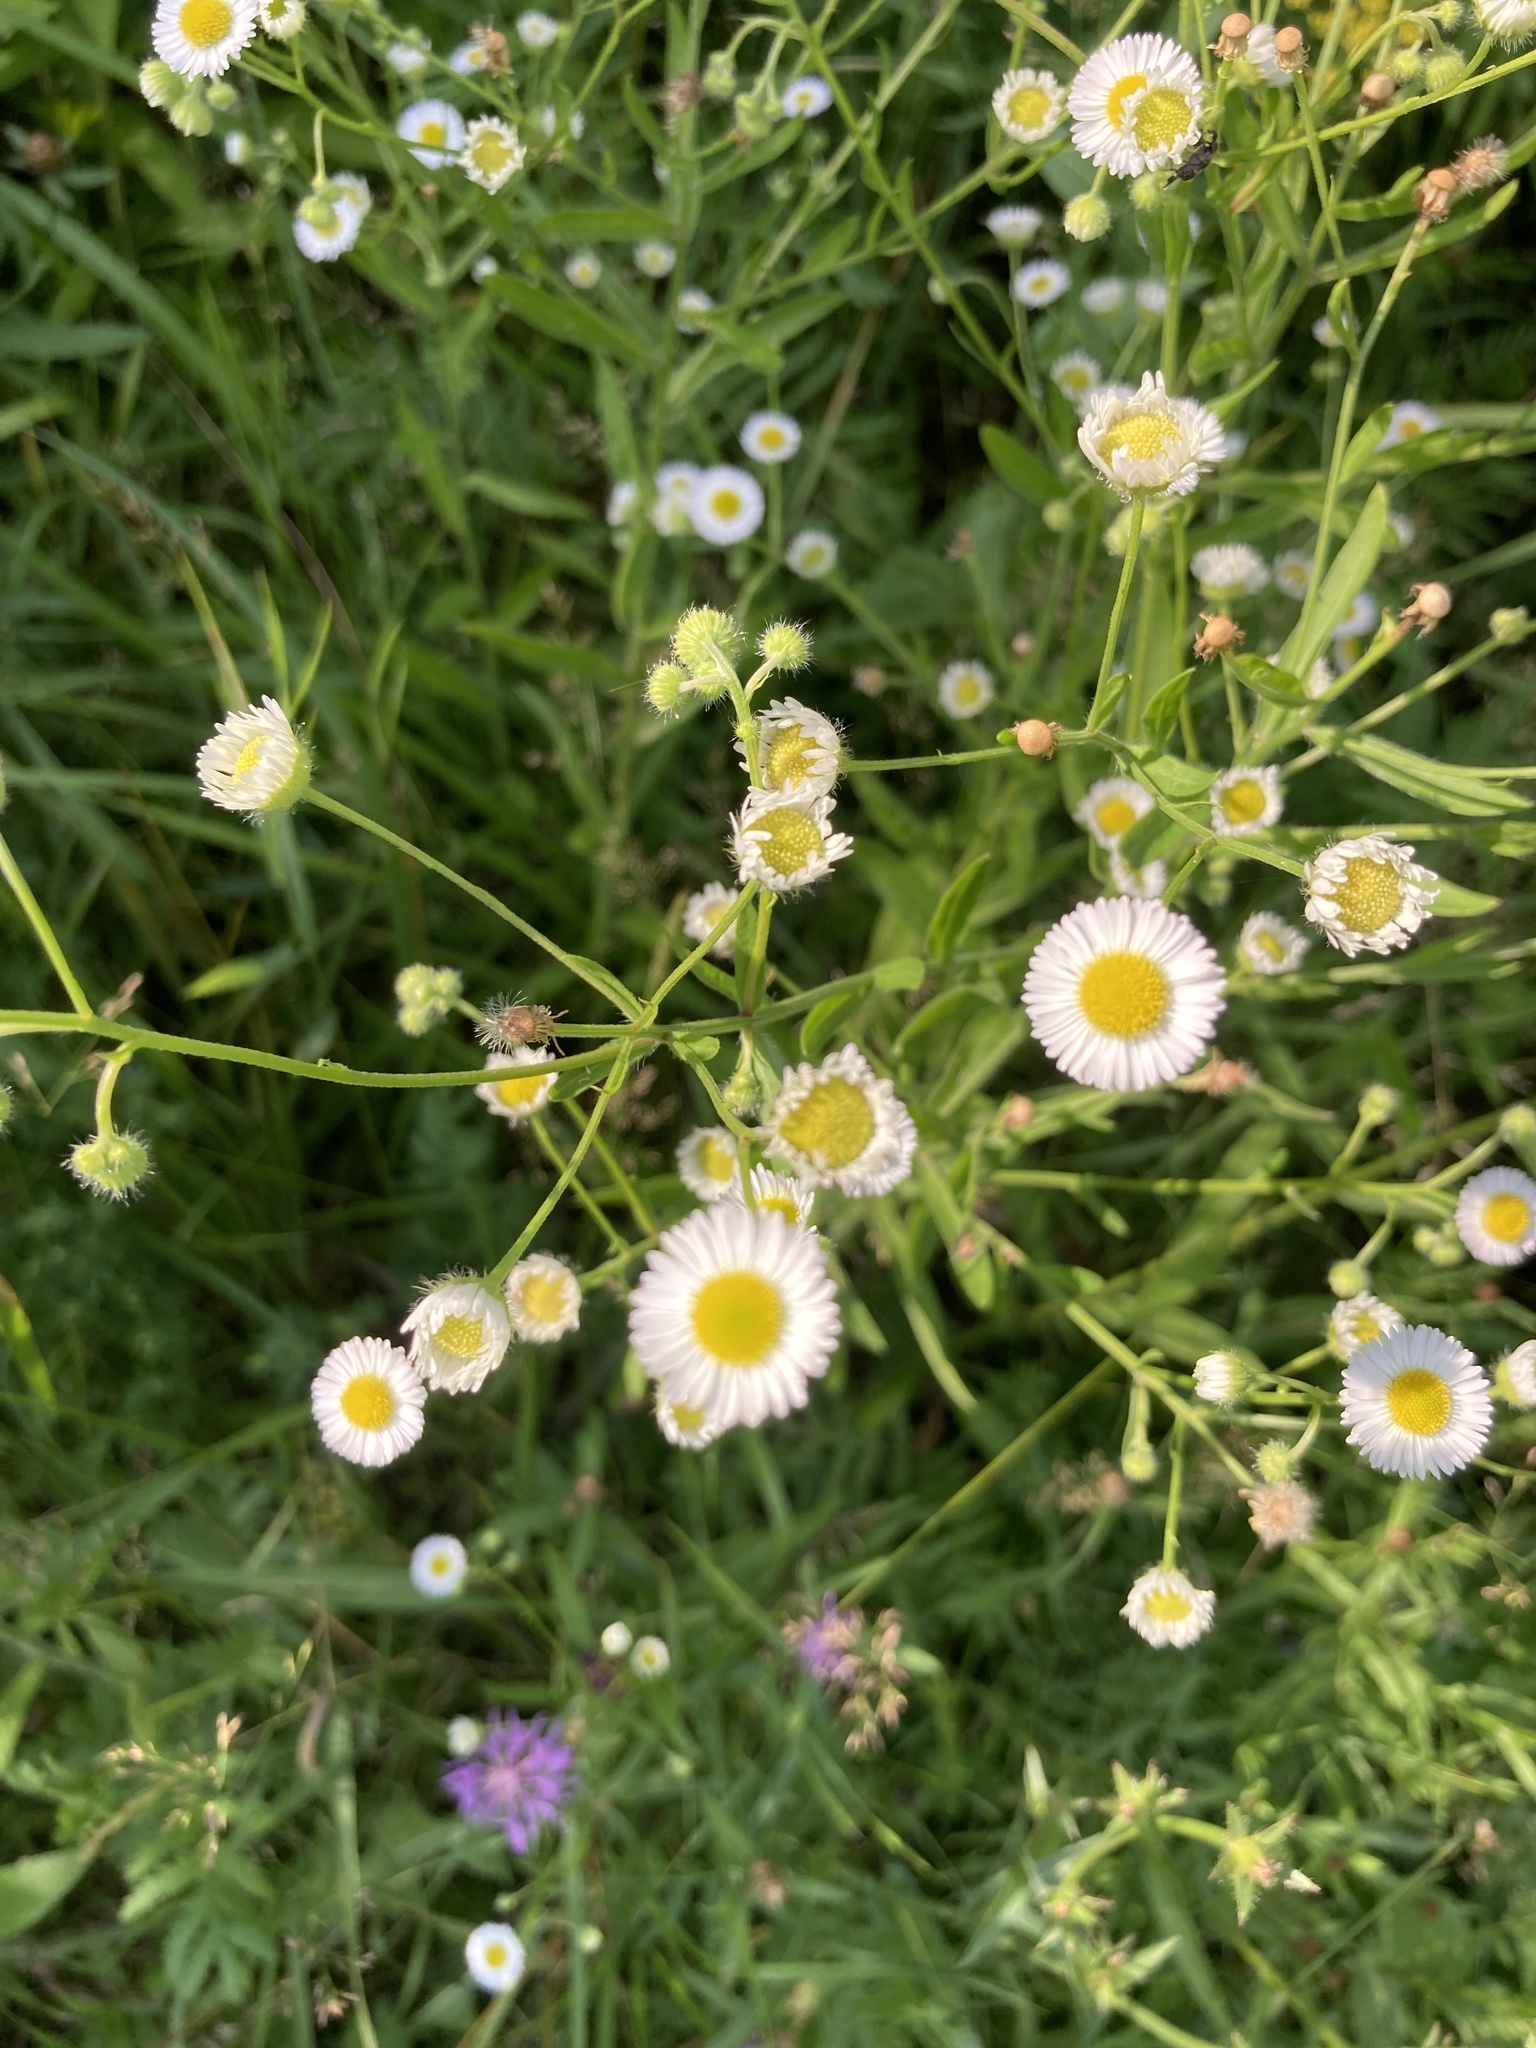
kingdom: Plantae
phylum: Tracheophyta
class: Magnoliopsida
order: Asterales
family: Asteraceae
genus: Erigeron
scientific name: Erigeron annuus
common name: Tall fleabane
